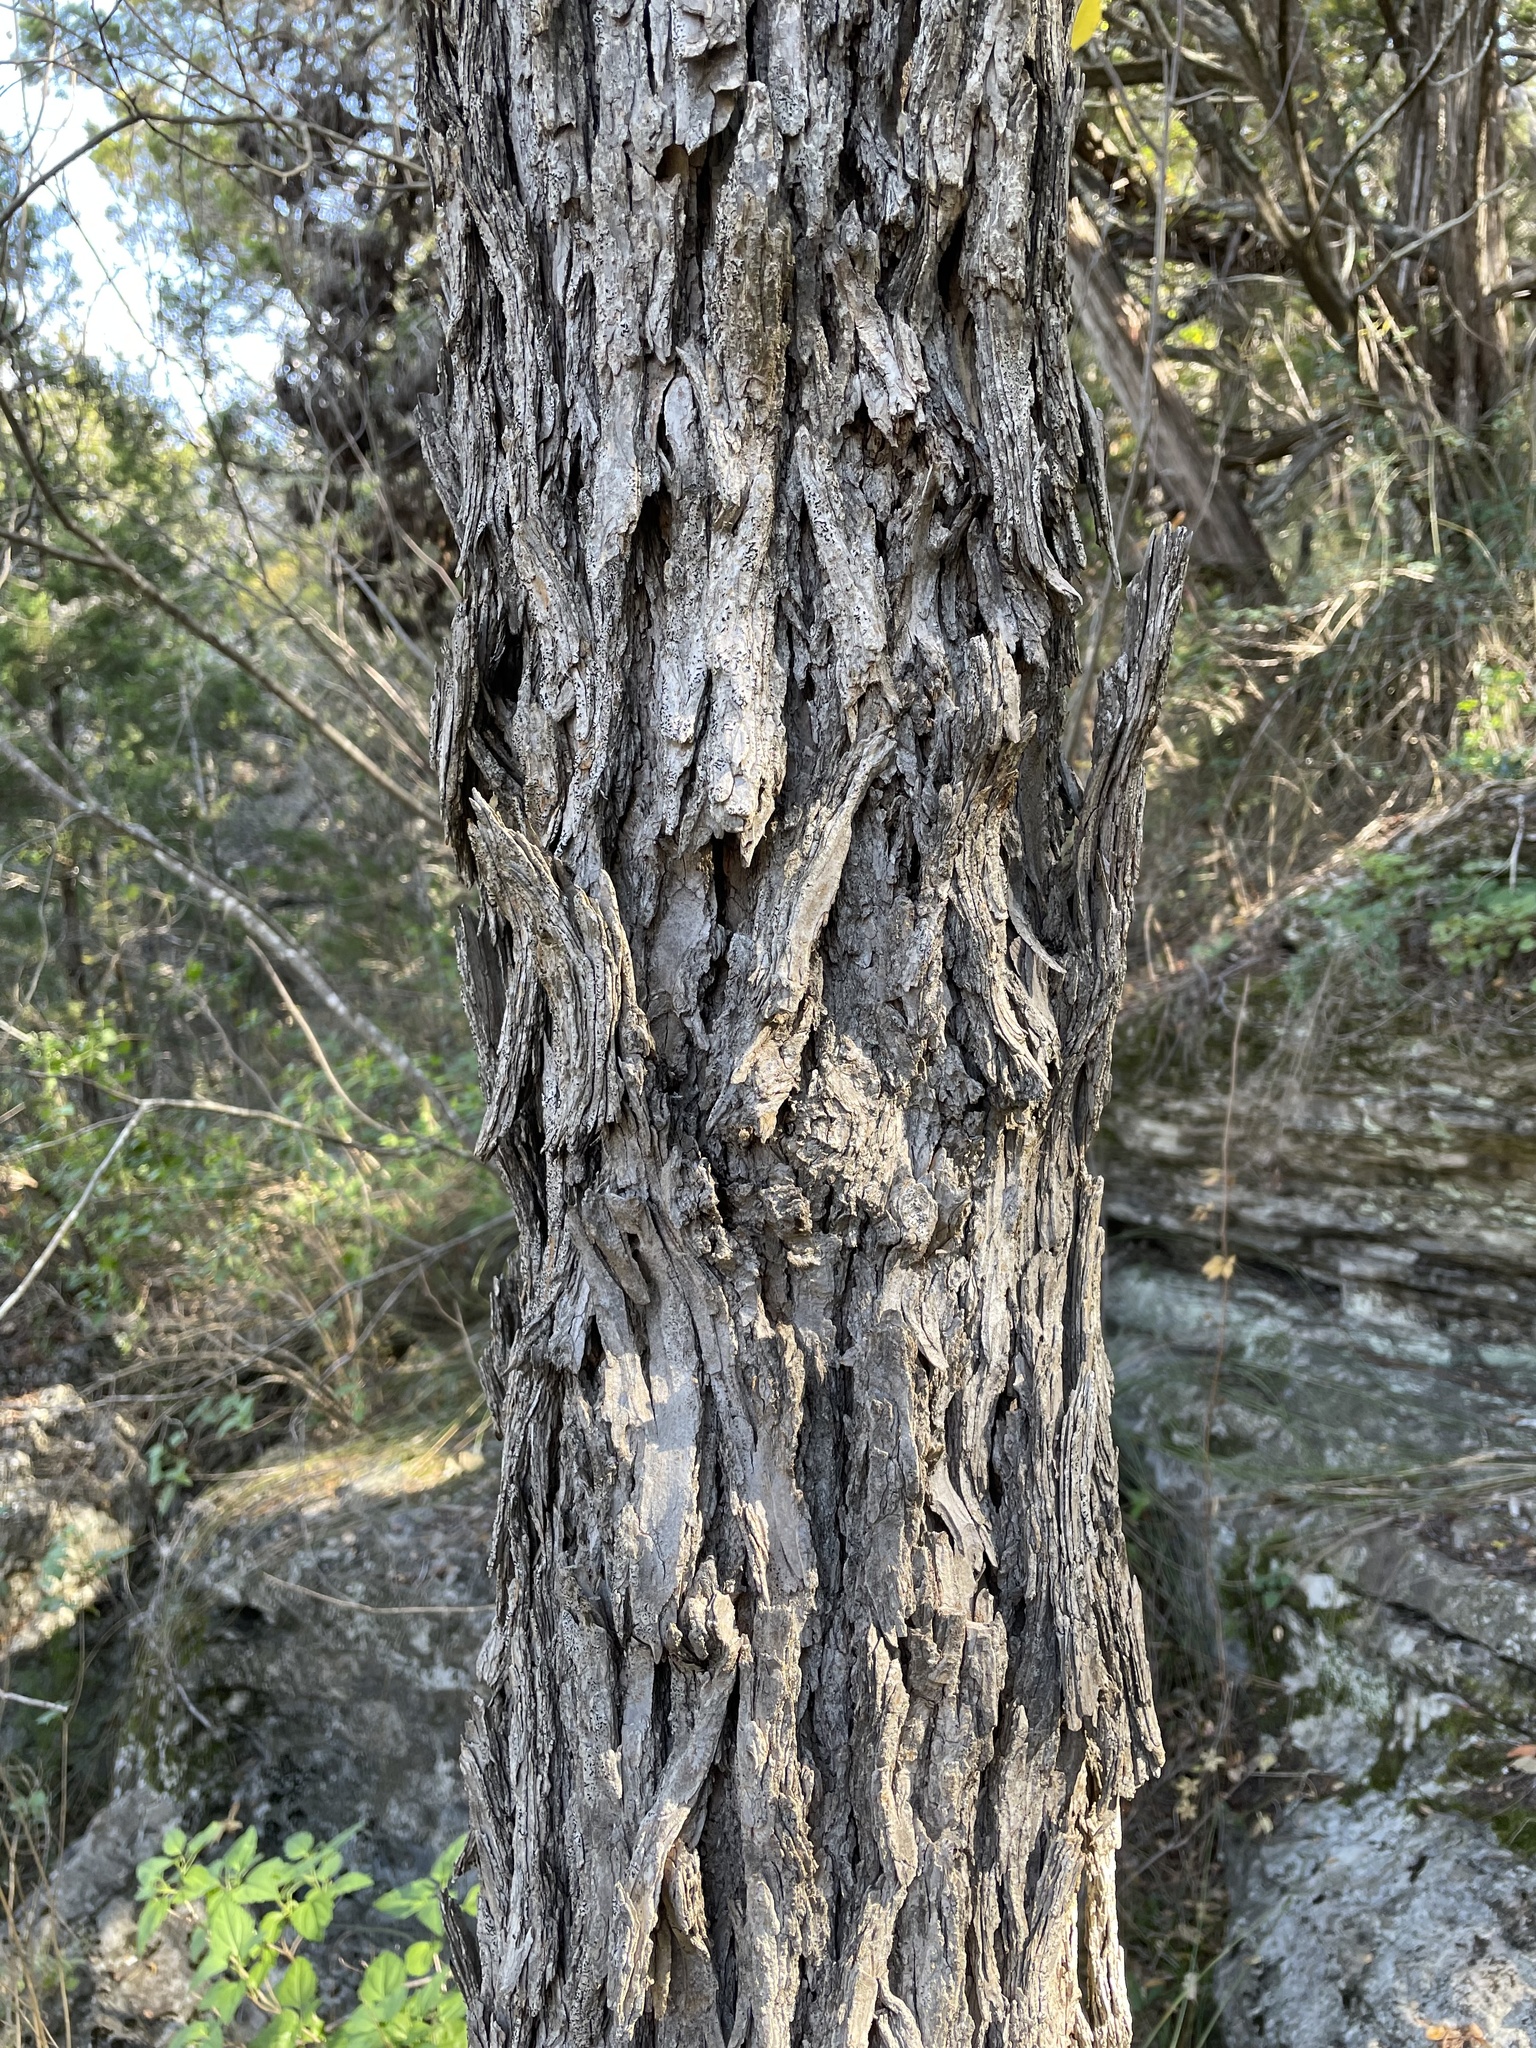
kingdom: Plantae
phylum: Tracheophyta
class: Magnoliopsida
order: Rosales
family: Ulmaceae
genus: Ulmus
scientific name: Ulmus crassifolia
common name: Basket elm
